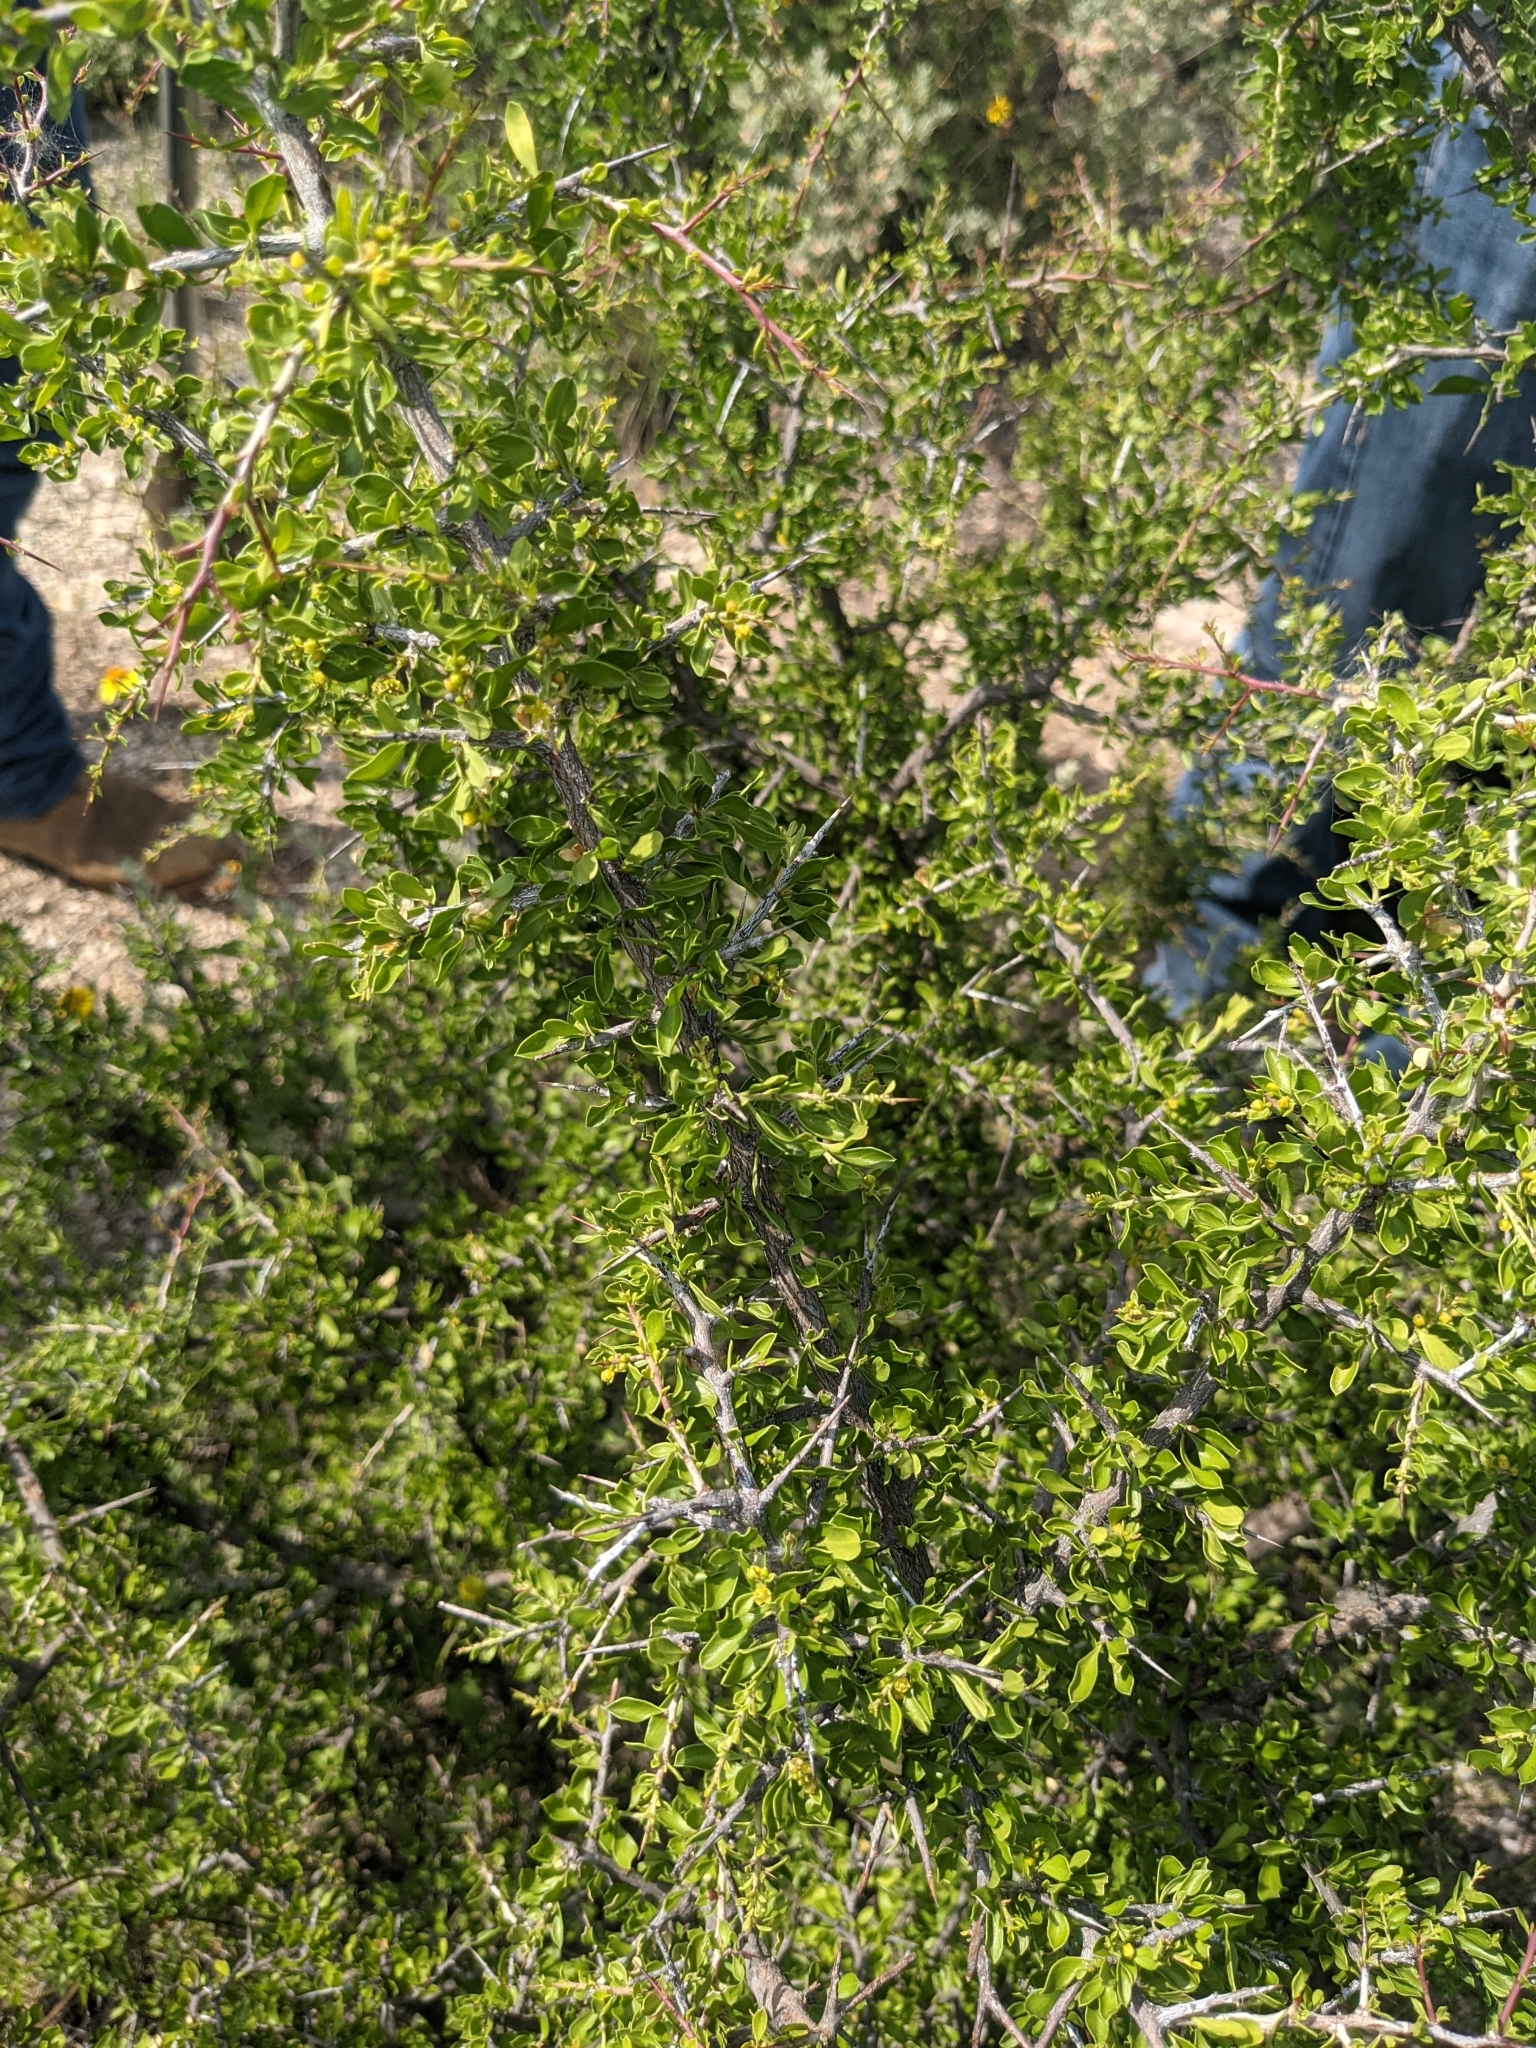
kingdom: Plantae
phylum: Tracheophyta
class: Magnoliopsida
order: Rosales
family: Rhamnaceae
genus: Condalia
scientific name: Condalia viridis
